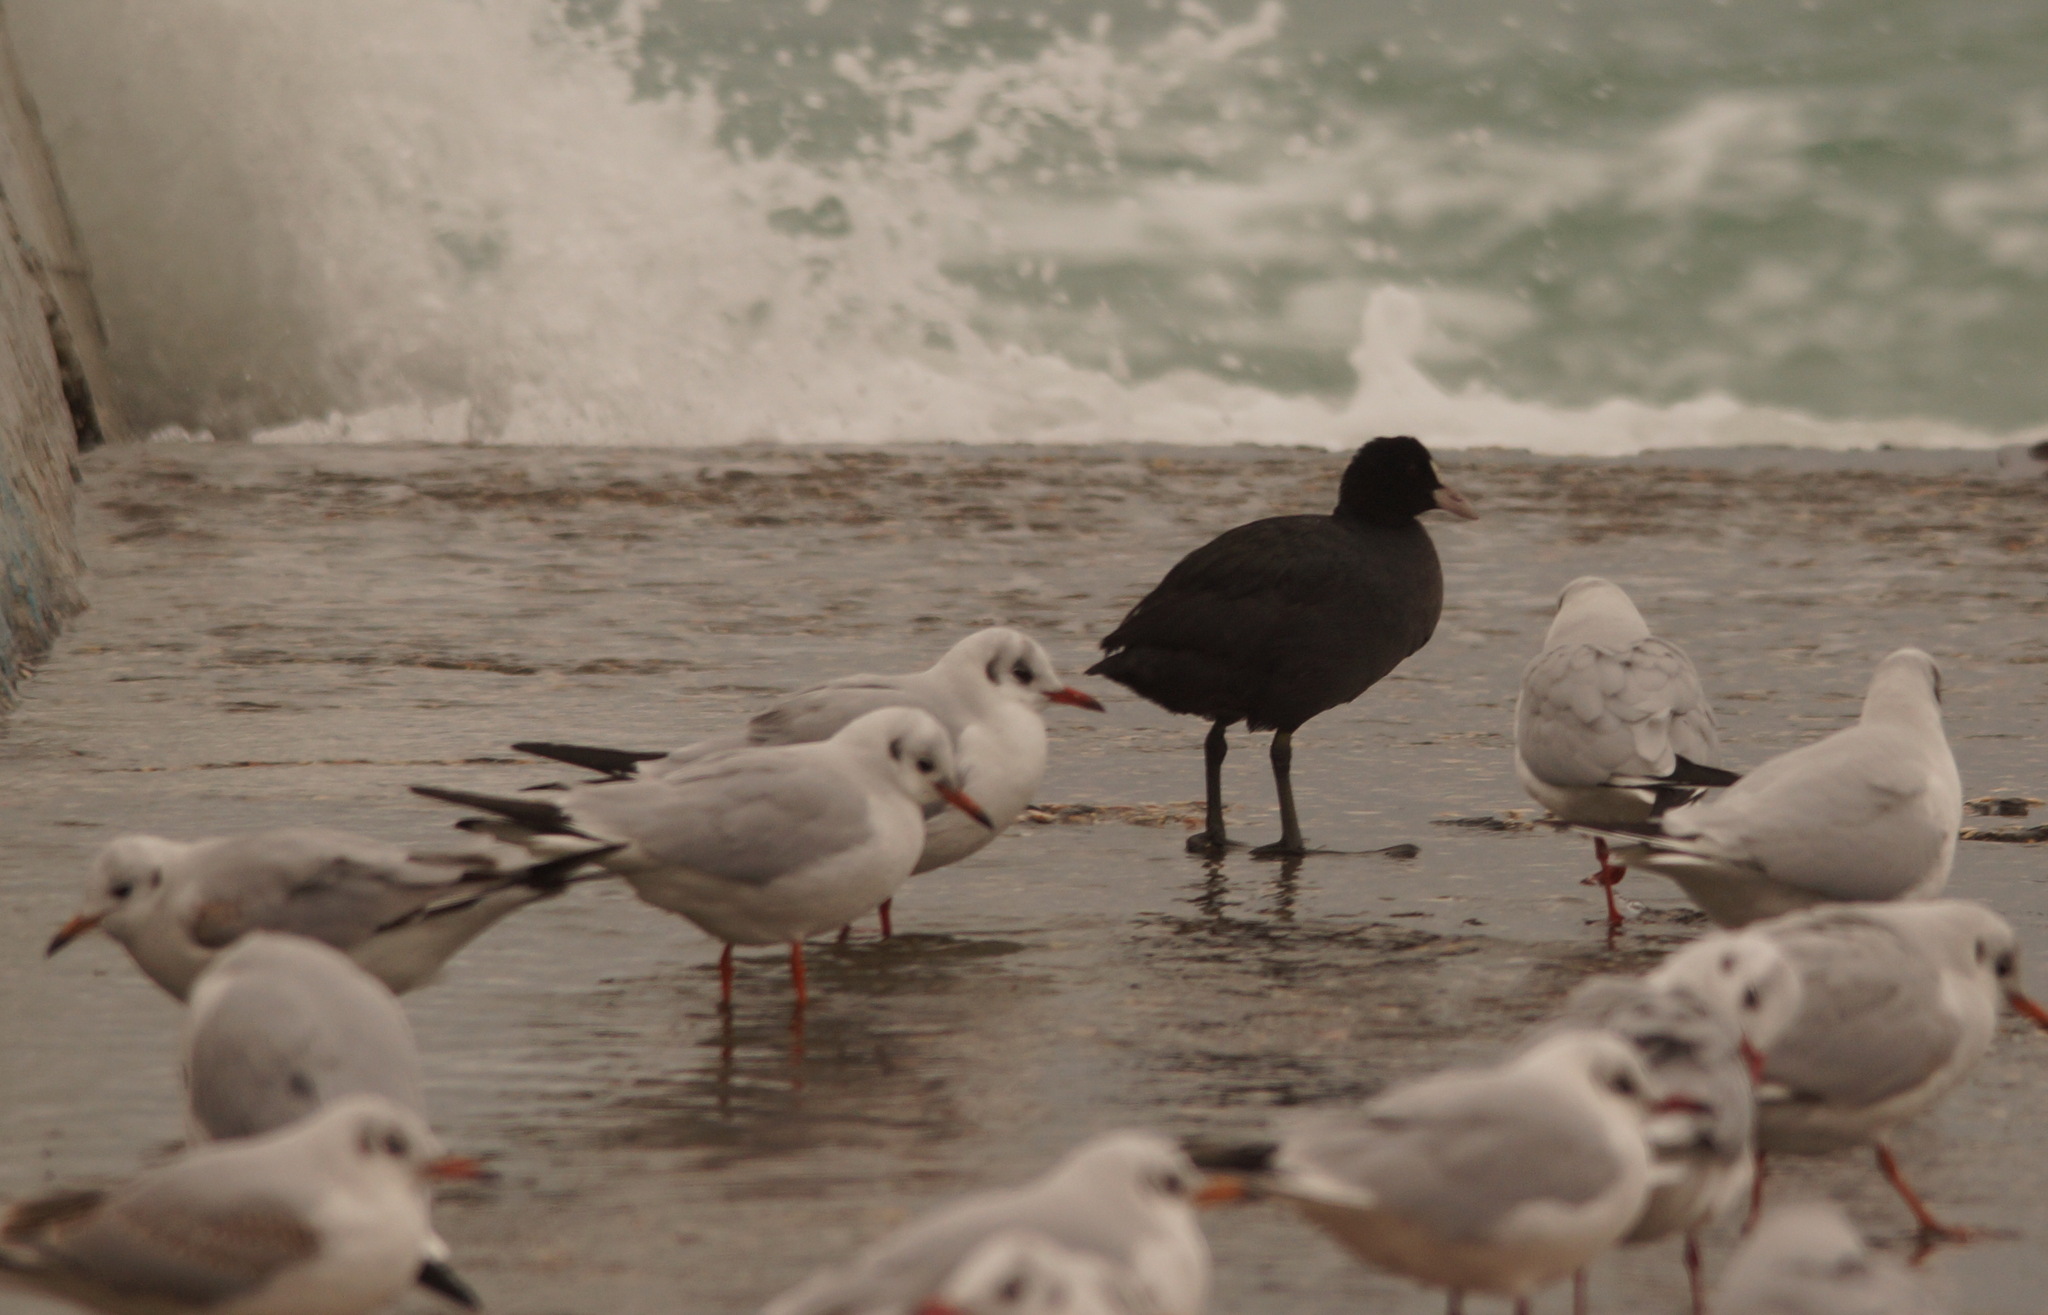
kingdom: Animalia
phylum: Chordata
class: Aves
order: Gruiformes
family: Rallidae
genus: Fulica
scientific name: Fulica atra
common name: Eurasian coot
